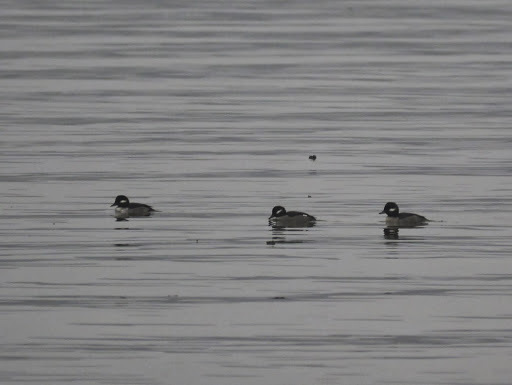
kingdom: Animalia
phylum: Chordata
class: Aves
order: Anseriformes
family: Anatidae
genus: Bucephala
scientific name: Bucephala albeola
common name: Bufflehead
